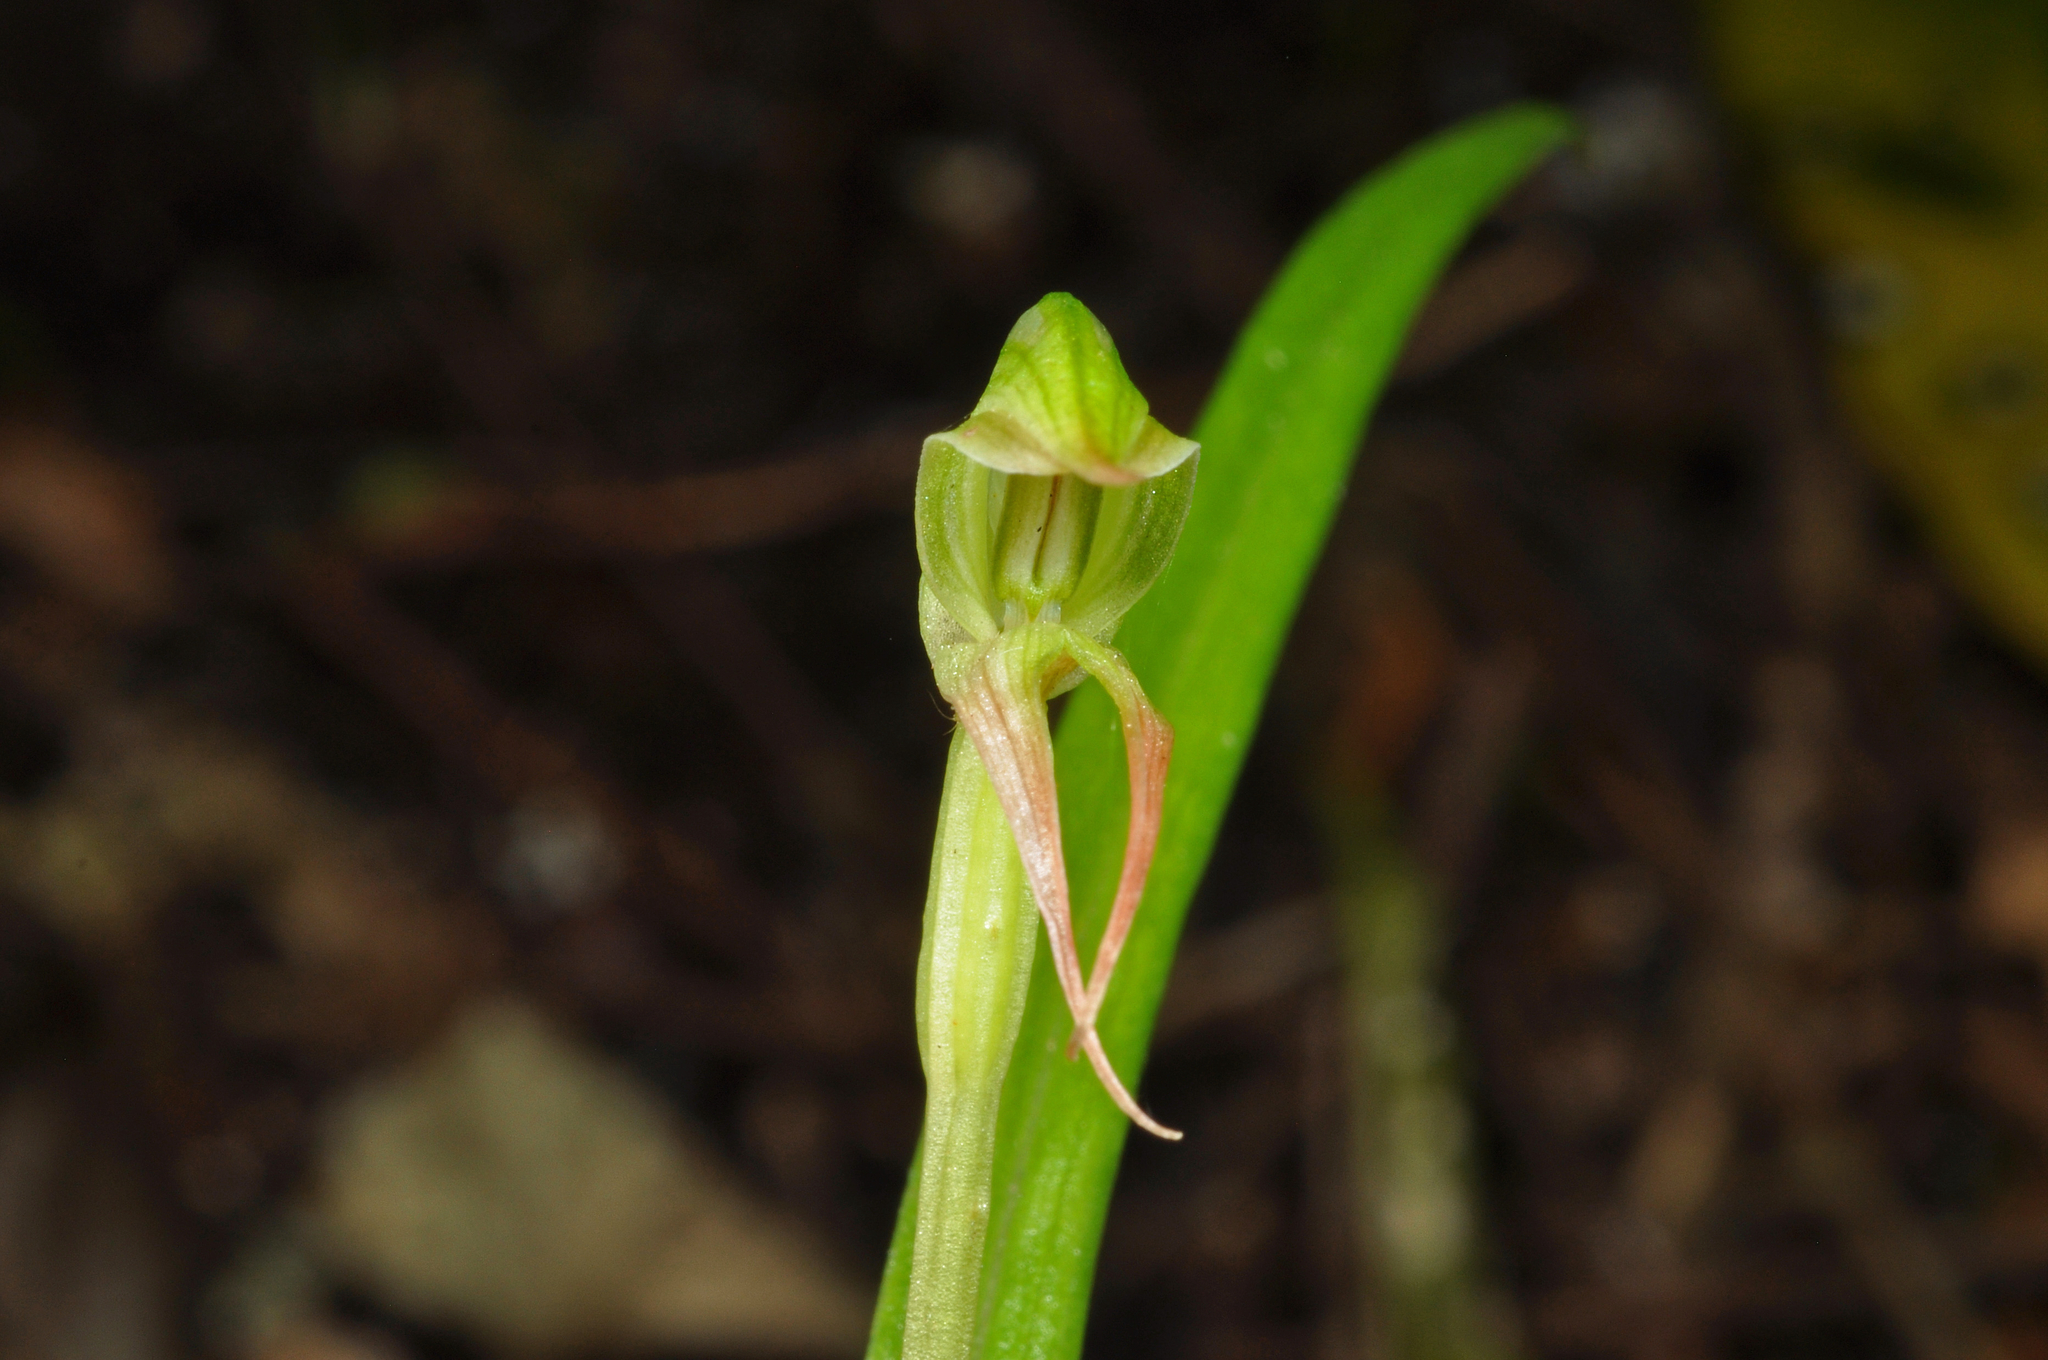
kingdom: Plantae
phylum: Tracheophyta
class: Liliopsida
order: Asparagales
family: Orchidaceae
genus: Pterostylis
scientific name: Pterostylis porrecta
